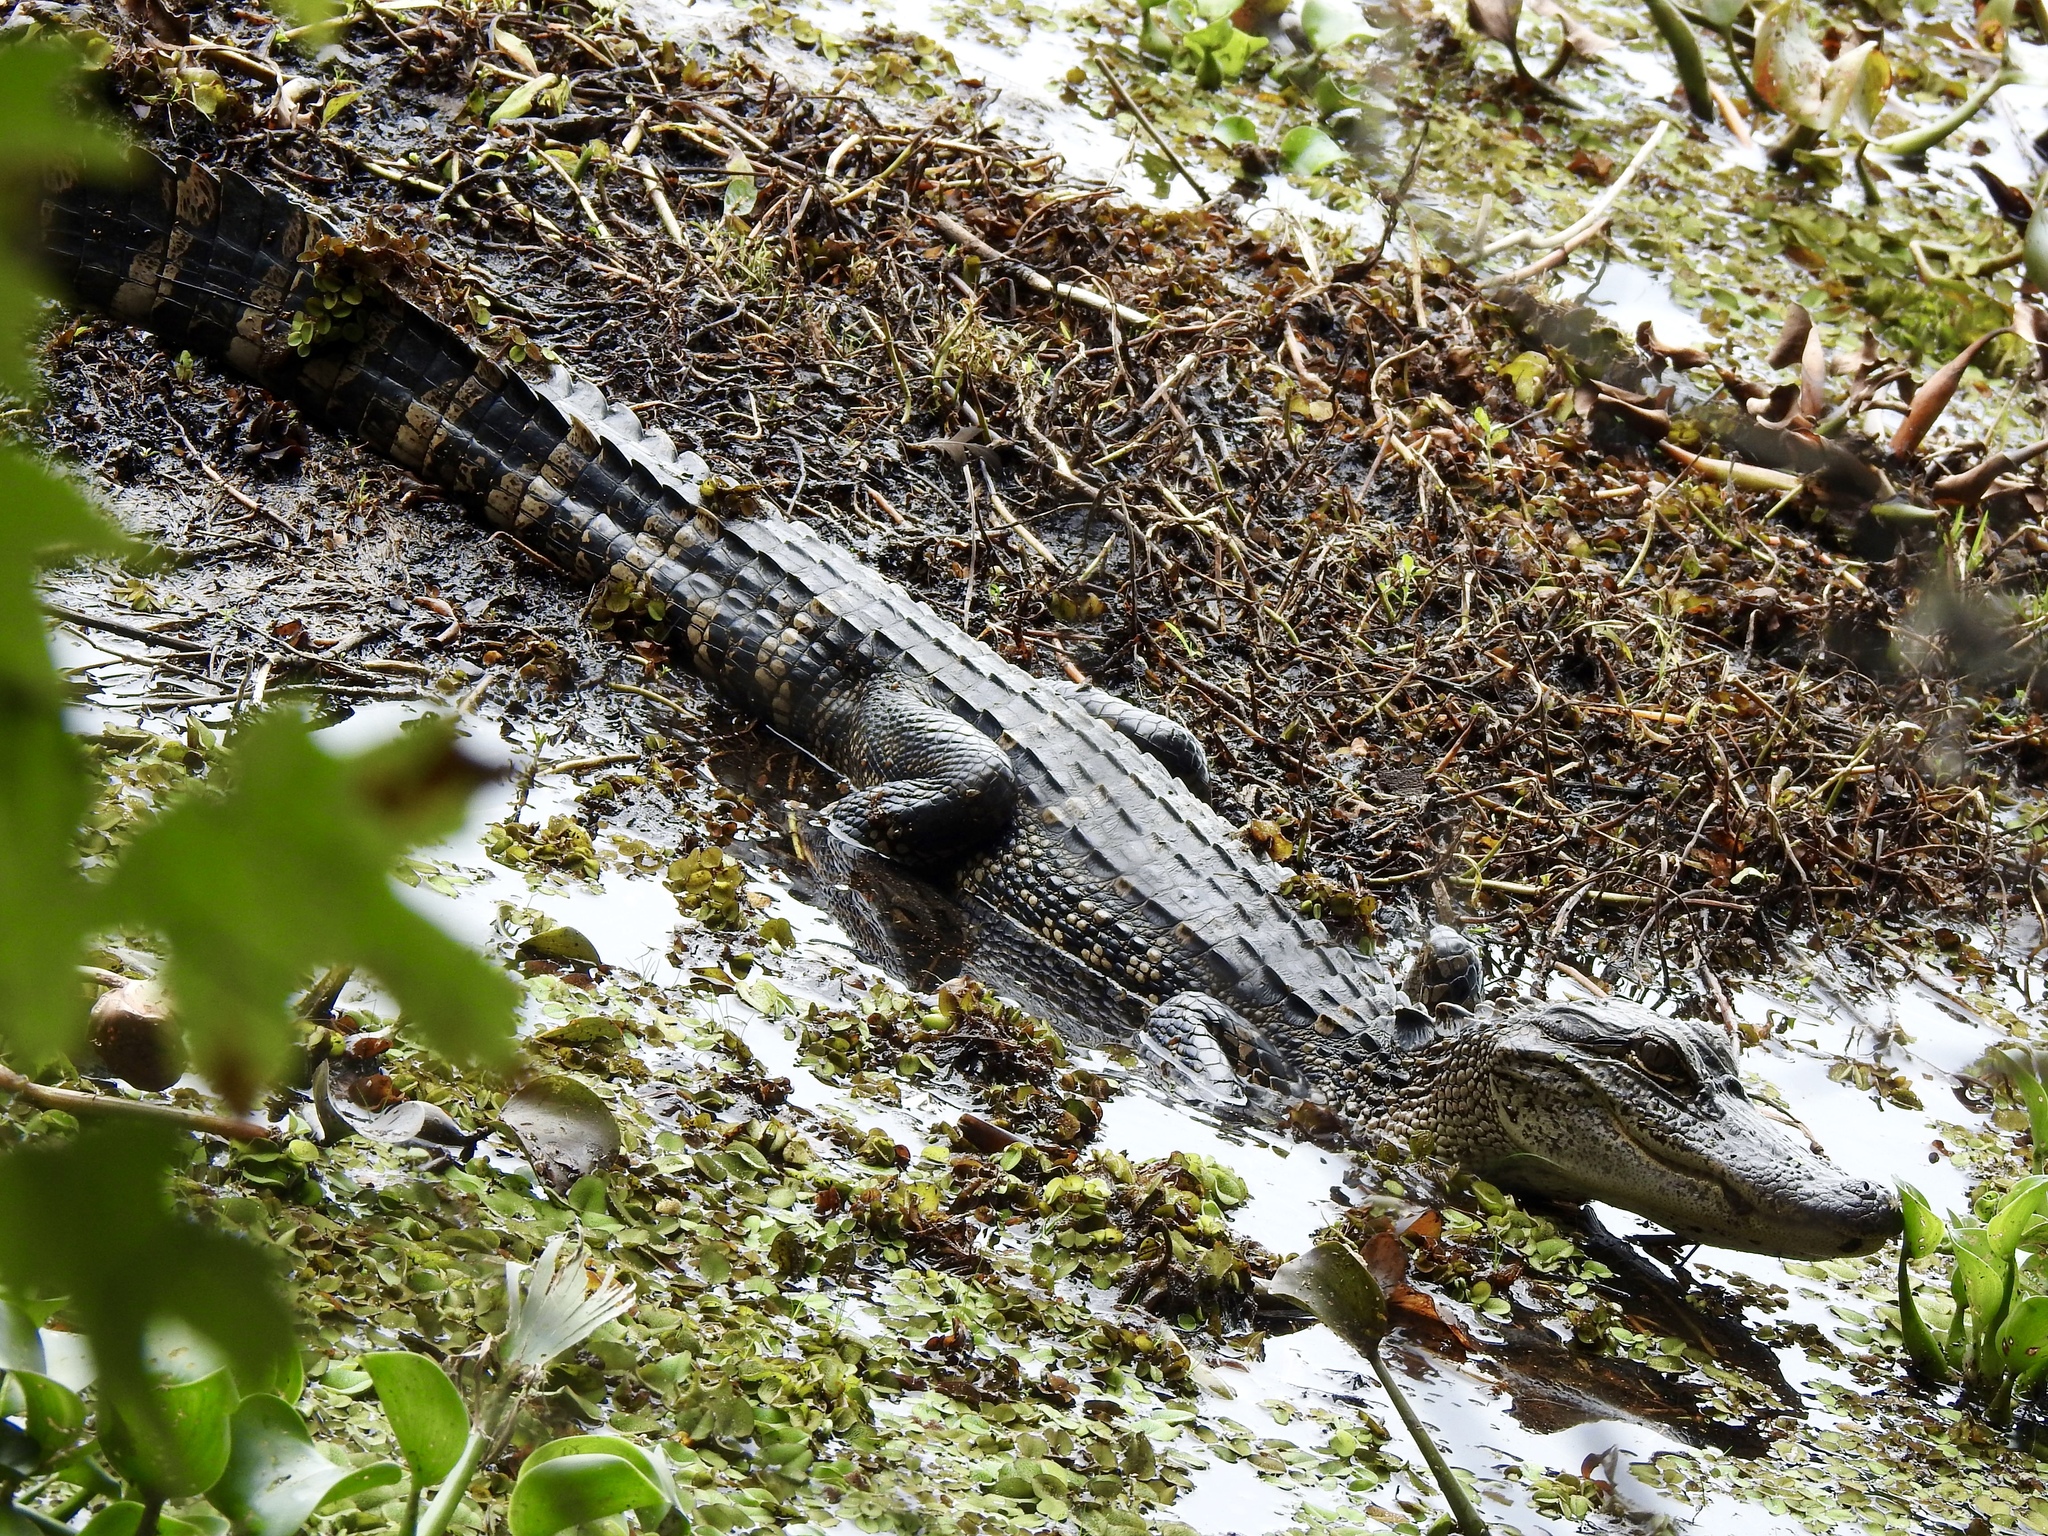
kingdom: Animalia
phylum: Chordata
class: Crocodylia
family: Alligatoridae
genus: Alligator
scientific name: Alligator mississippiensis
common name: American alligator
